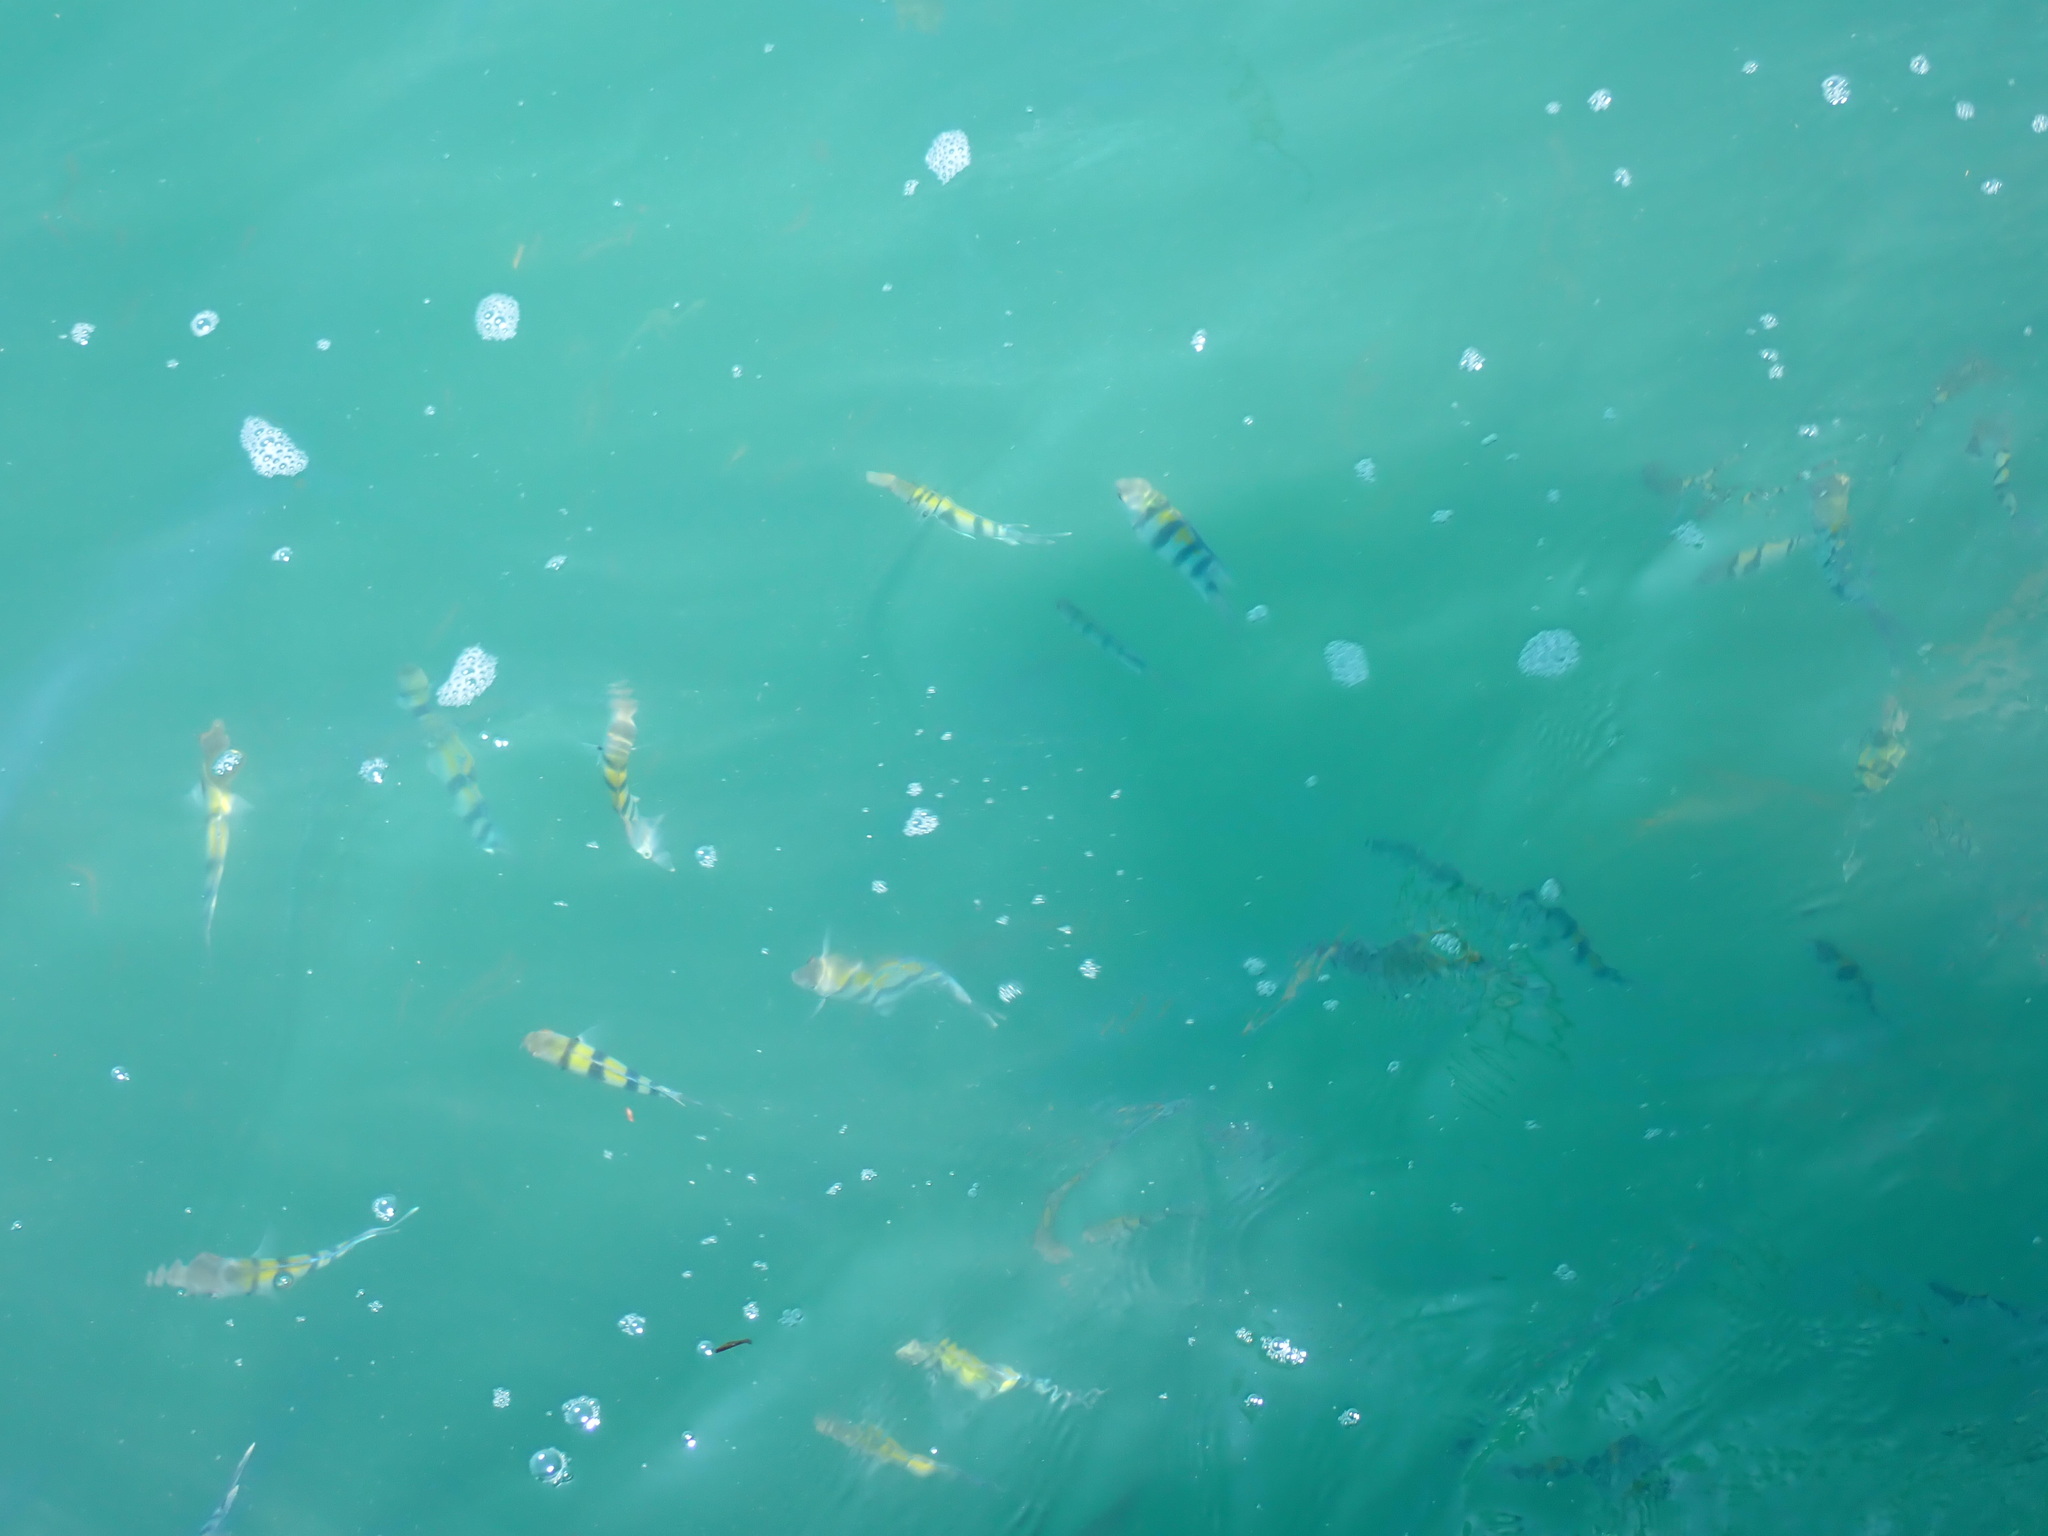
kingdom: Animalia
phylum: Chordata
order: Perciformes
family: Pomacentridae
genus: Abudefduf
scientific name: Abudefduf vaigiensis
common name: Indo-pacific sergeant
